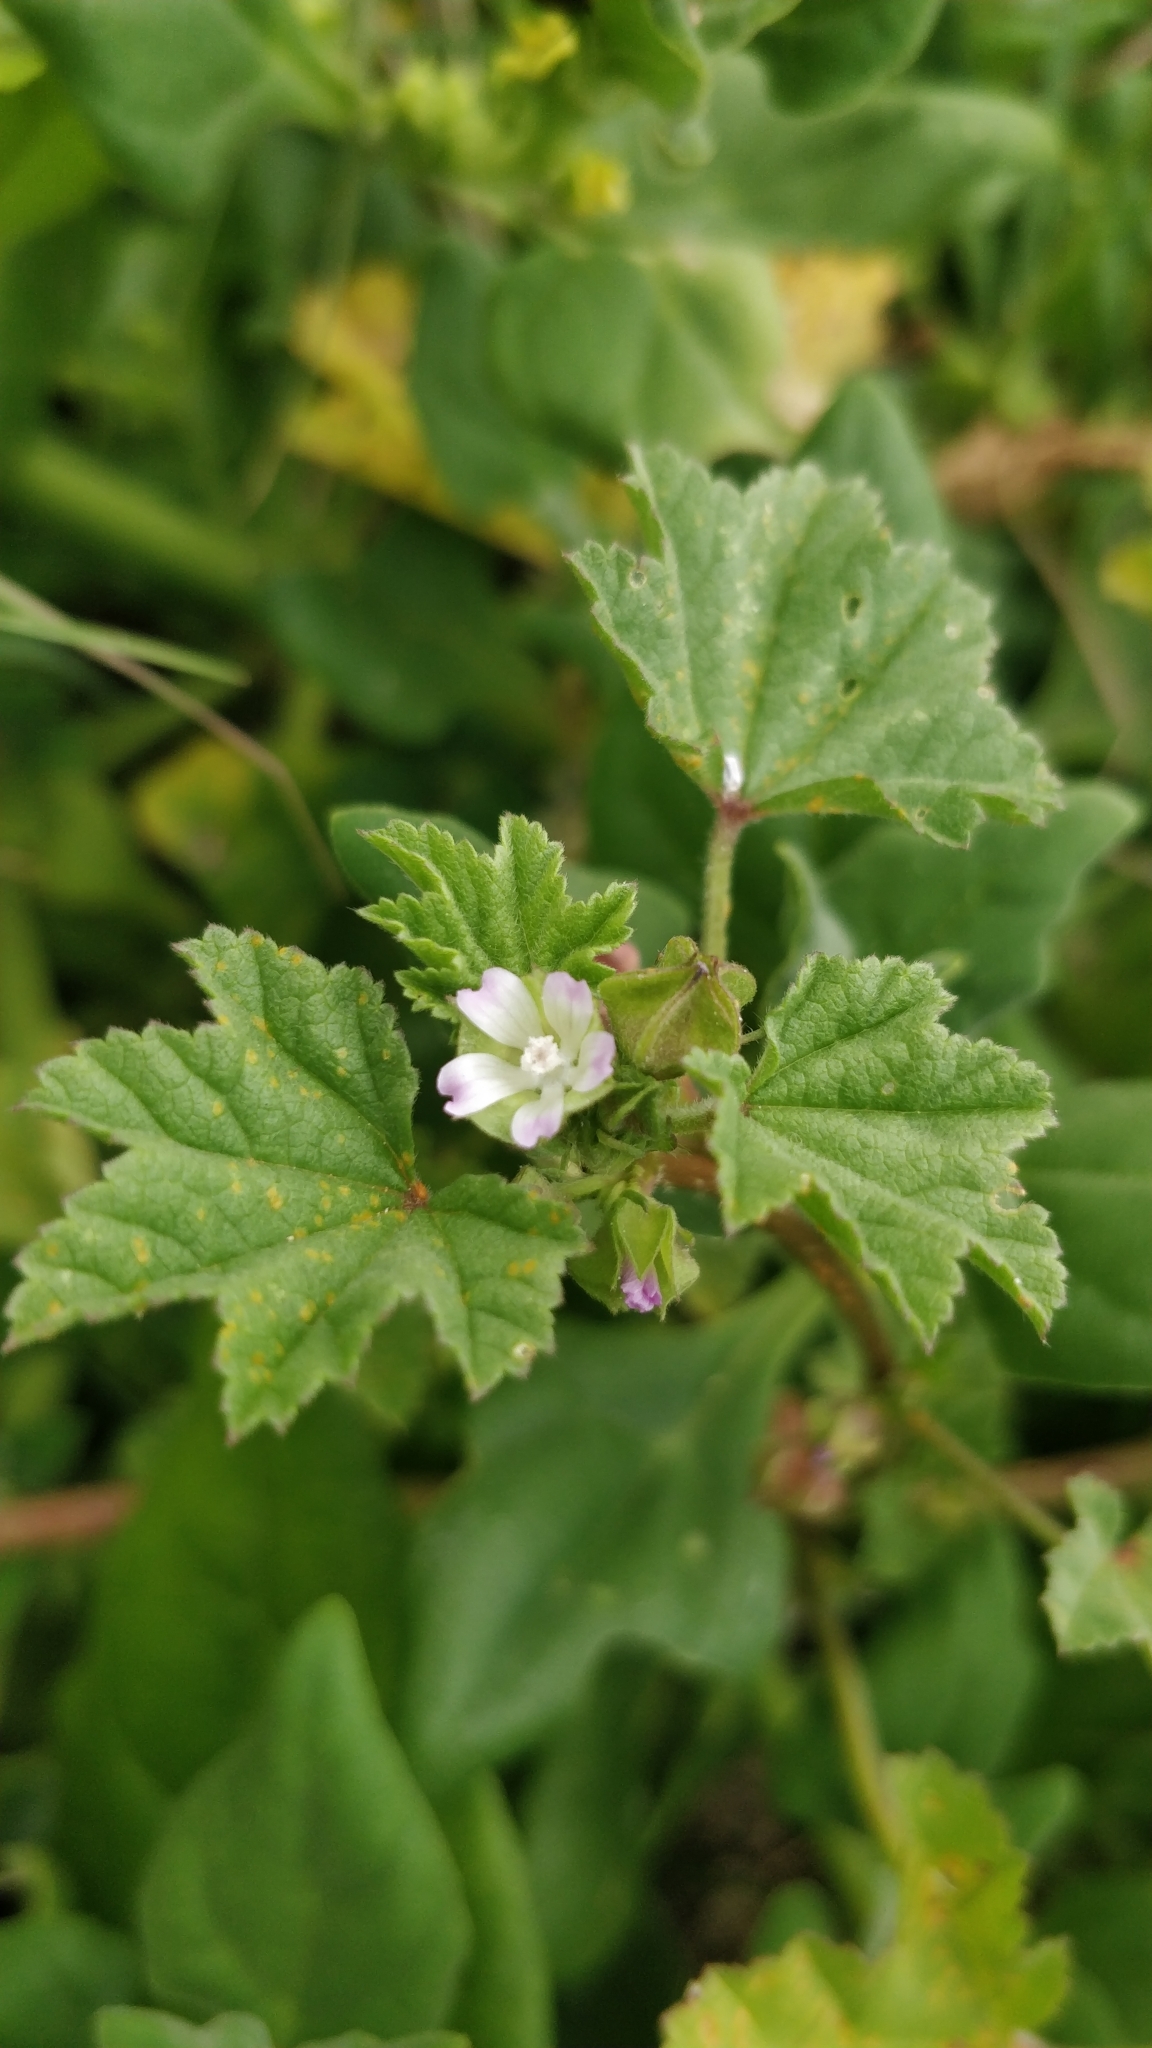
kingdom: Plantae
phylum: Tracheophyta
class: Magnoliopsida
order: Malvales
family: Malvaceae
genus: Malva
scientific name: Malva parviflora
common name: Least mallow
